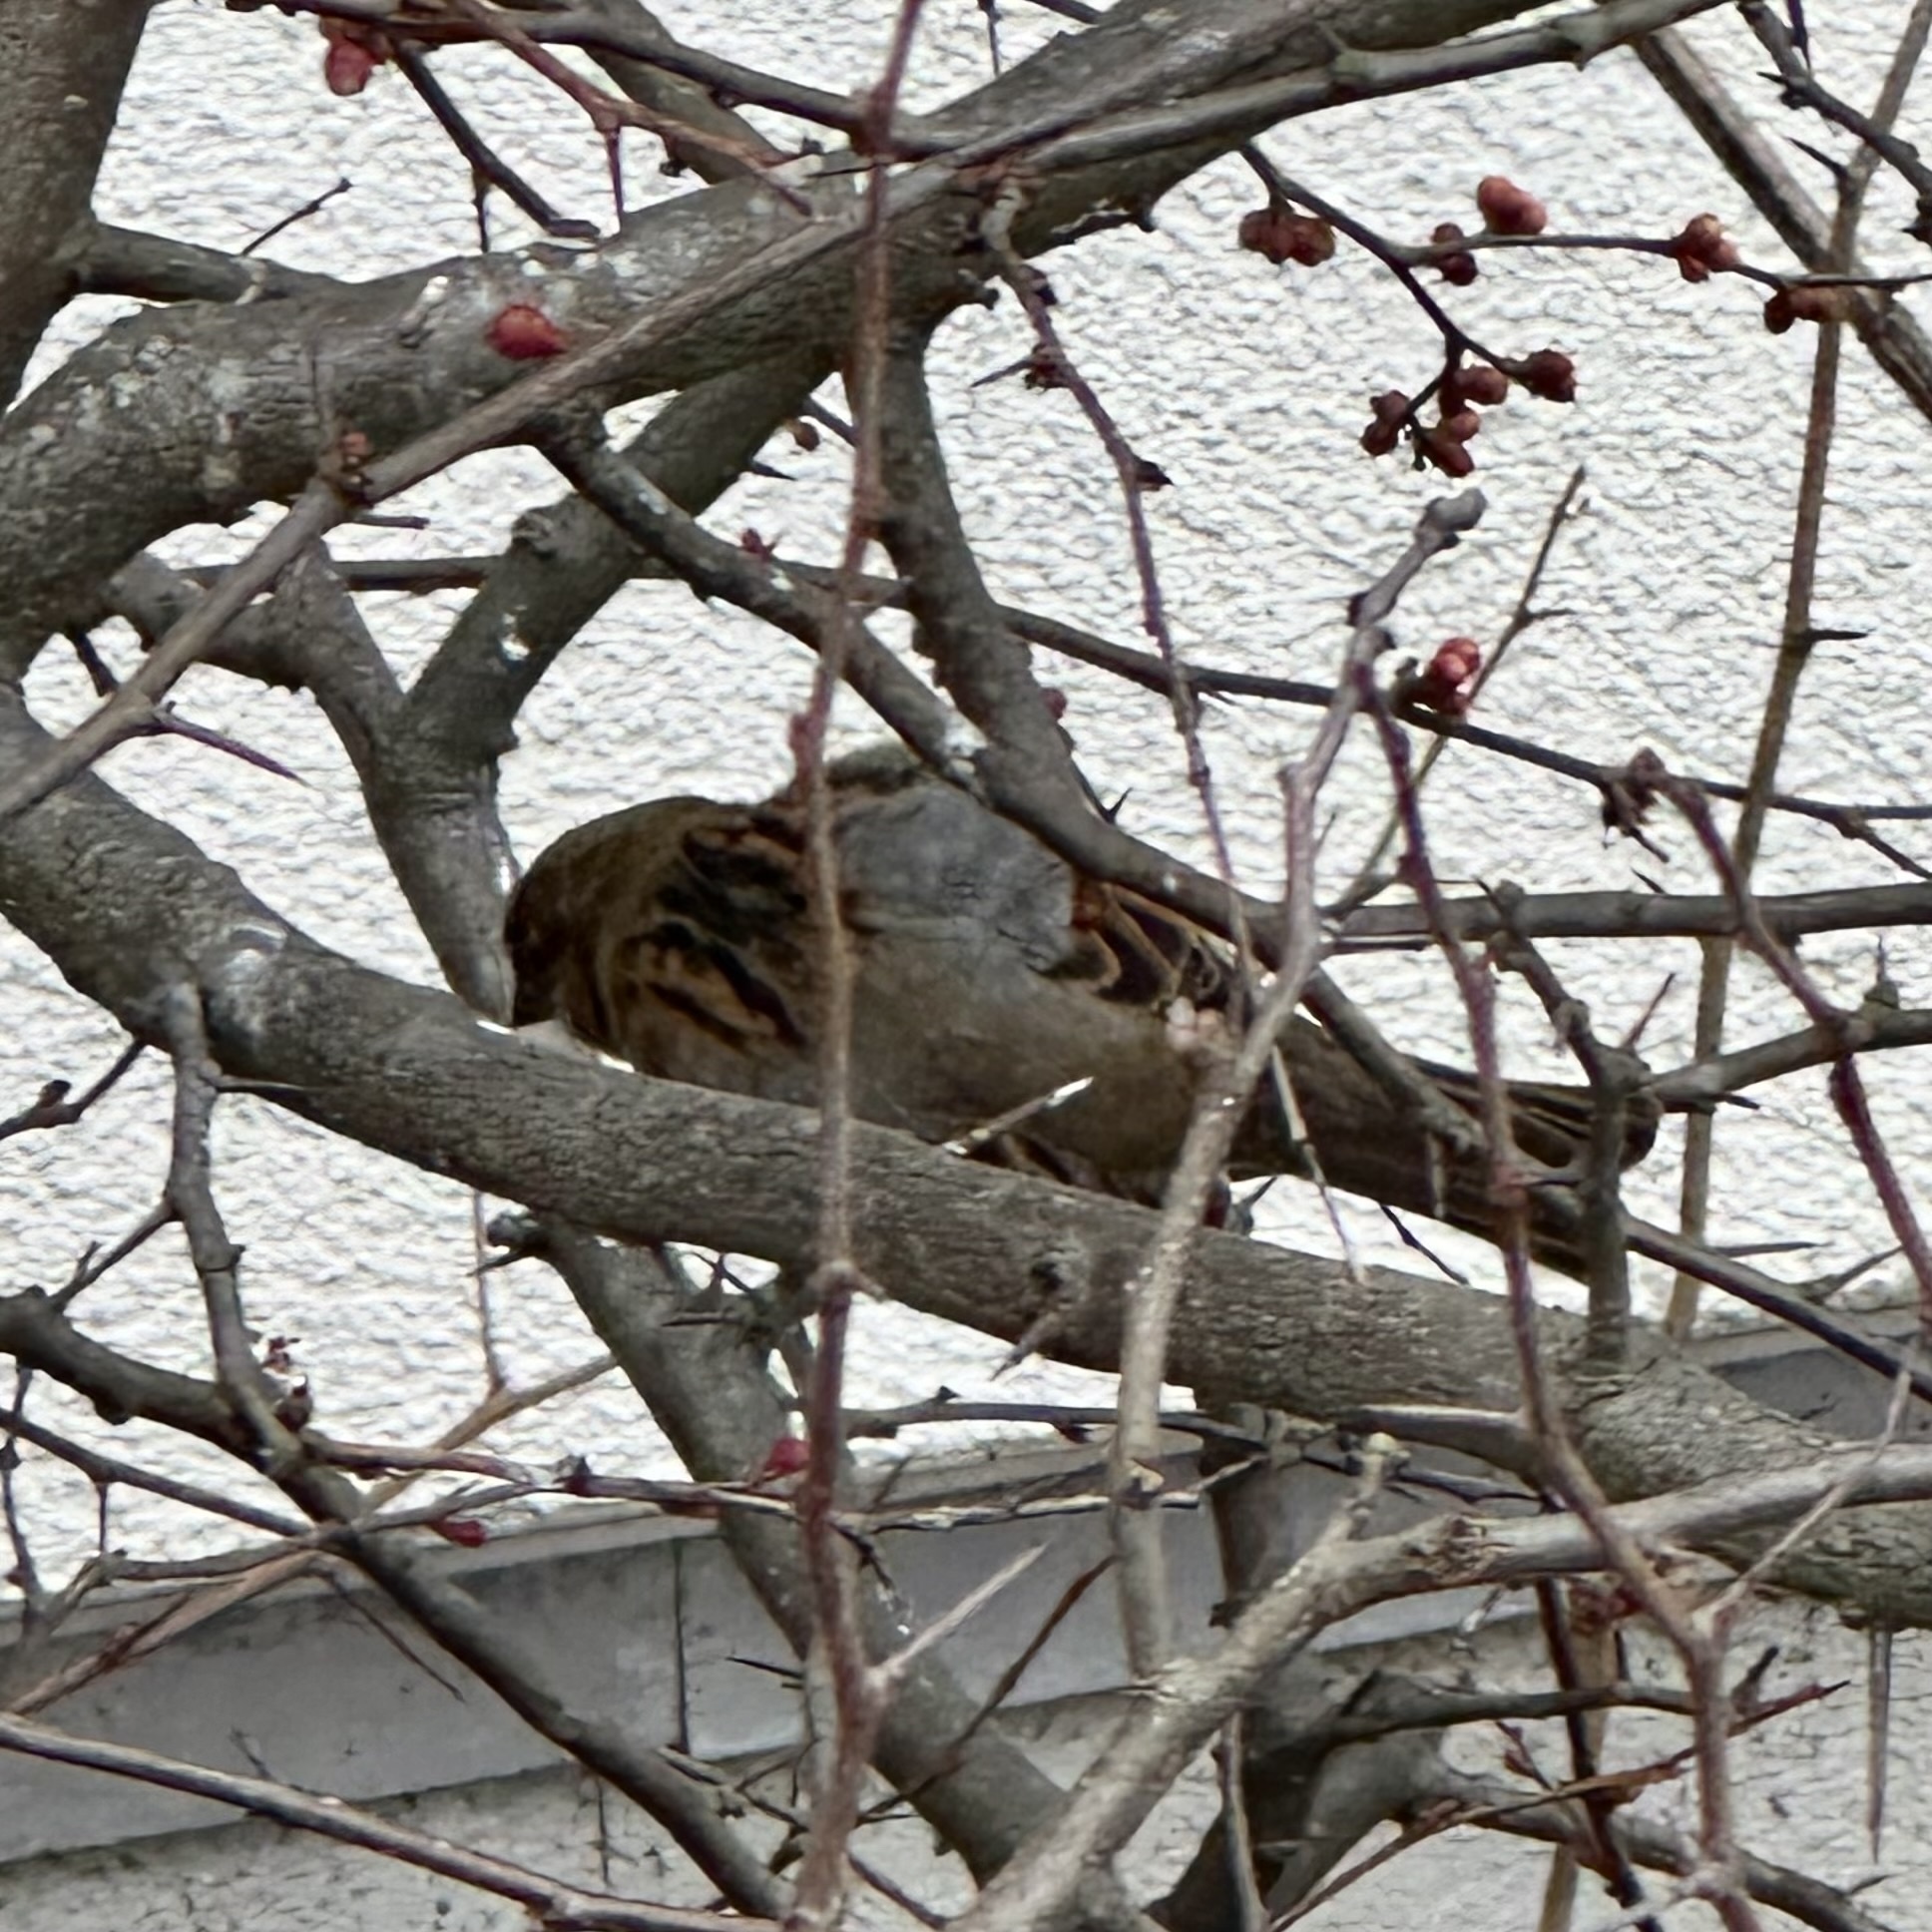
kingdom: Animalia
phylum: Chordata
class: Aves
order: Passeriformes
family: Passeridae
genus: Passer
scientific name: Passer domesticus
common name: House sparrow
